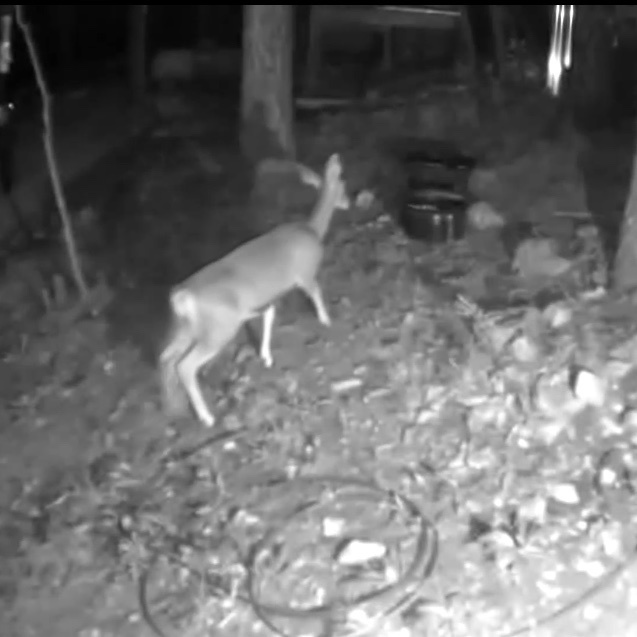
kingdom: Animalia
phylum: Chordata
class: Mammalia
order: Artiodactyla
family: Cervidae
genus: Odocoileus
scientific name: Odocoileus hemionus
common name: Mule deer
